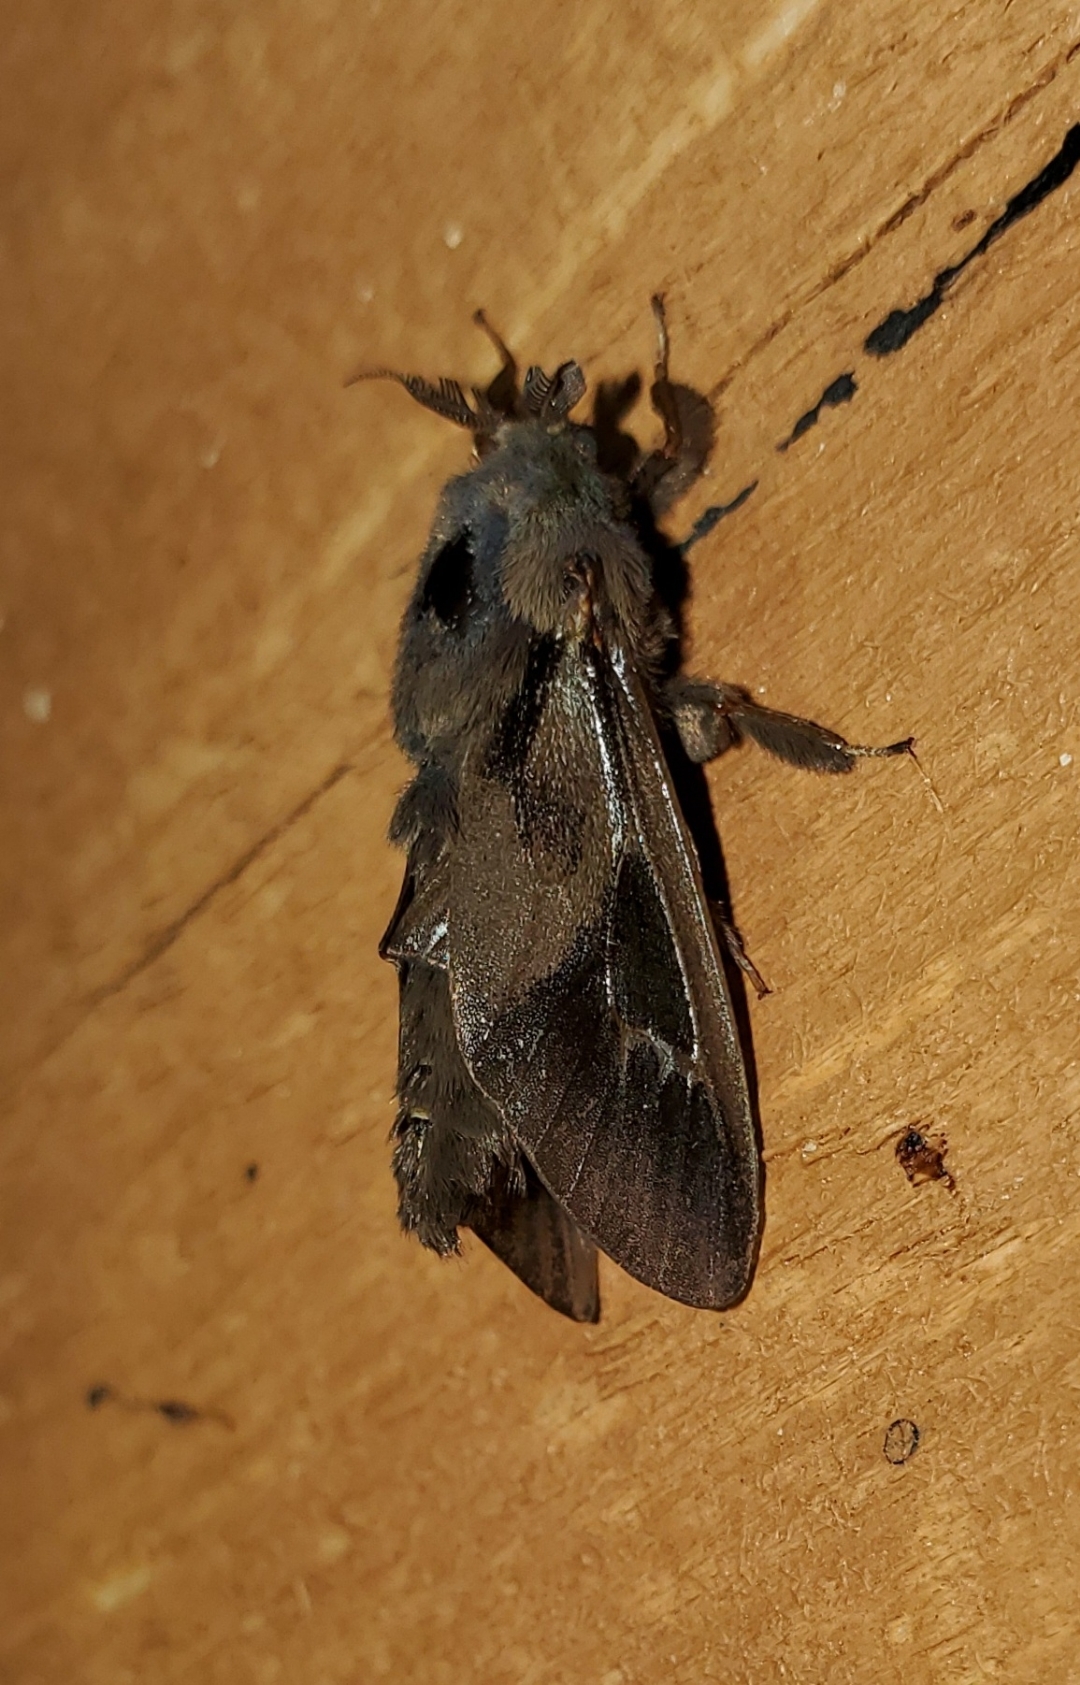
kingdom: Animalia
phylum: Arthropoda
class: Insecta
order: Lepidoptera
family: Psychidae
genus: Oiketicus
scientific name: Oiketicus
